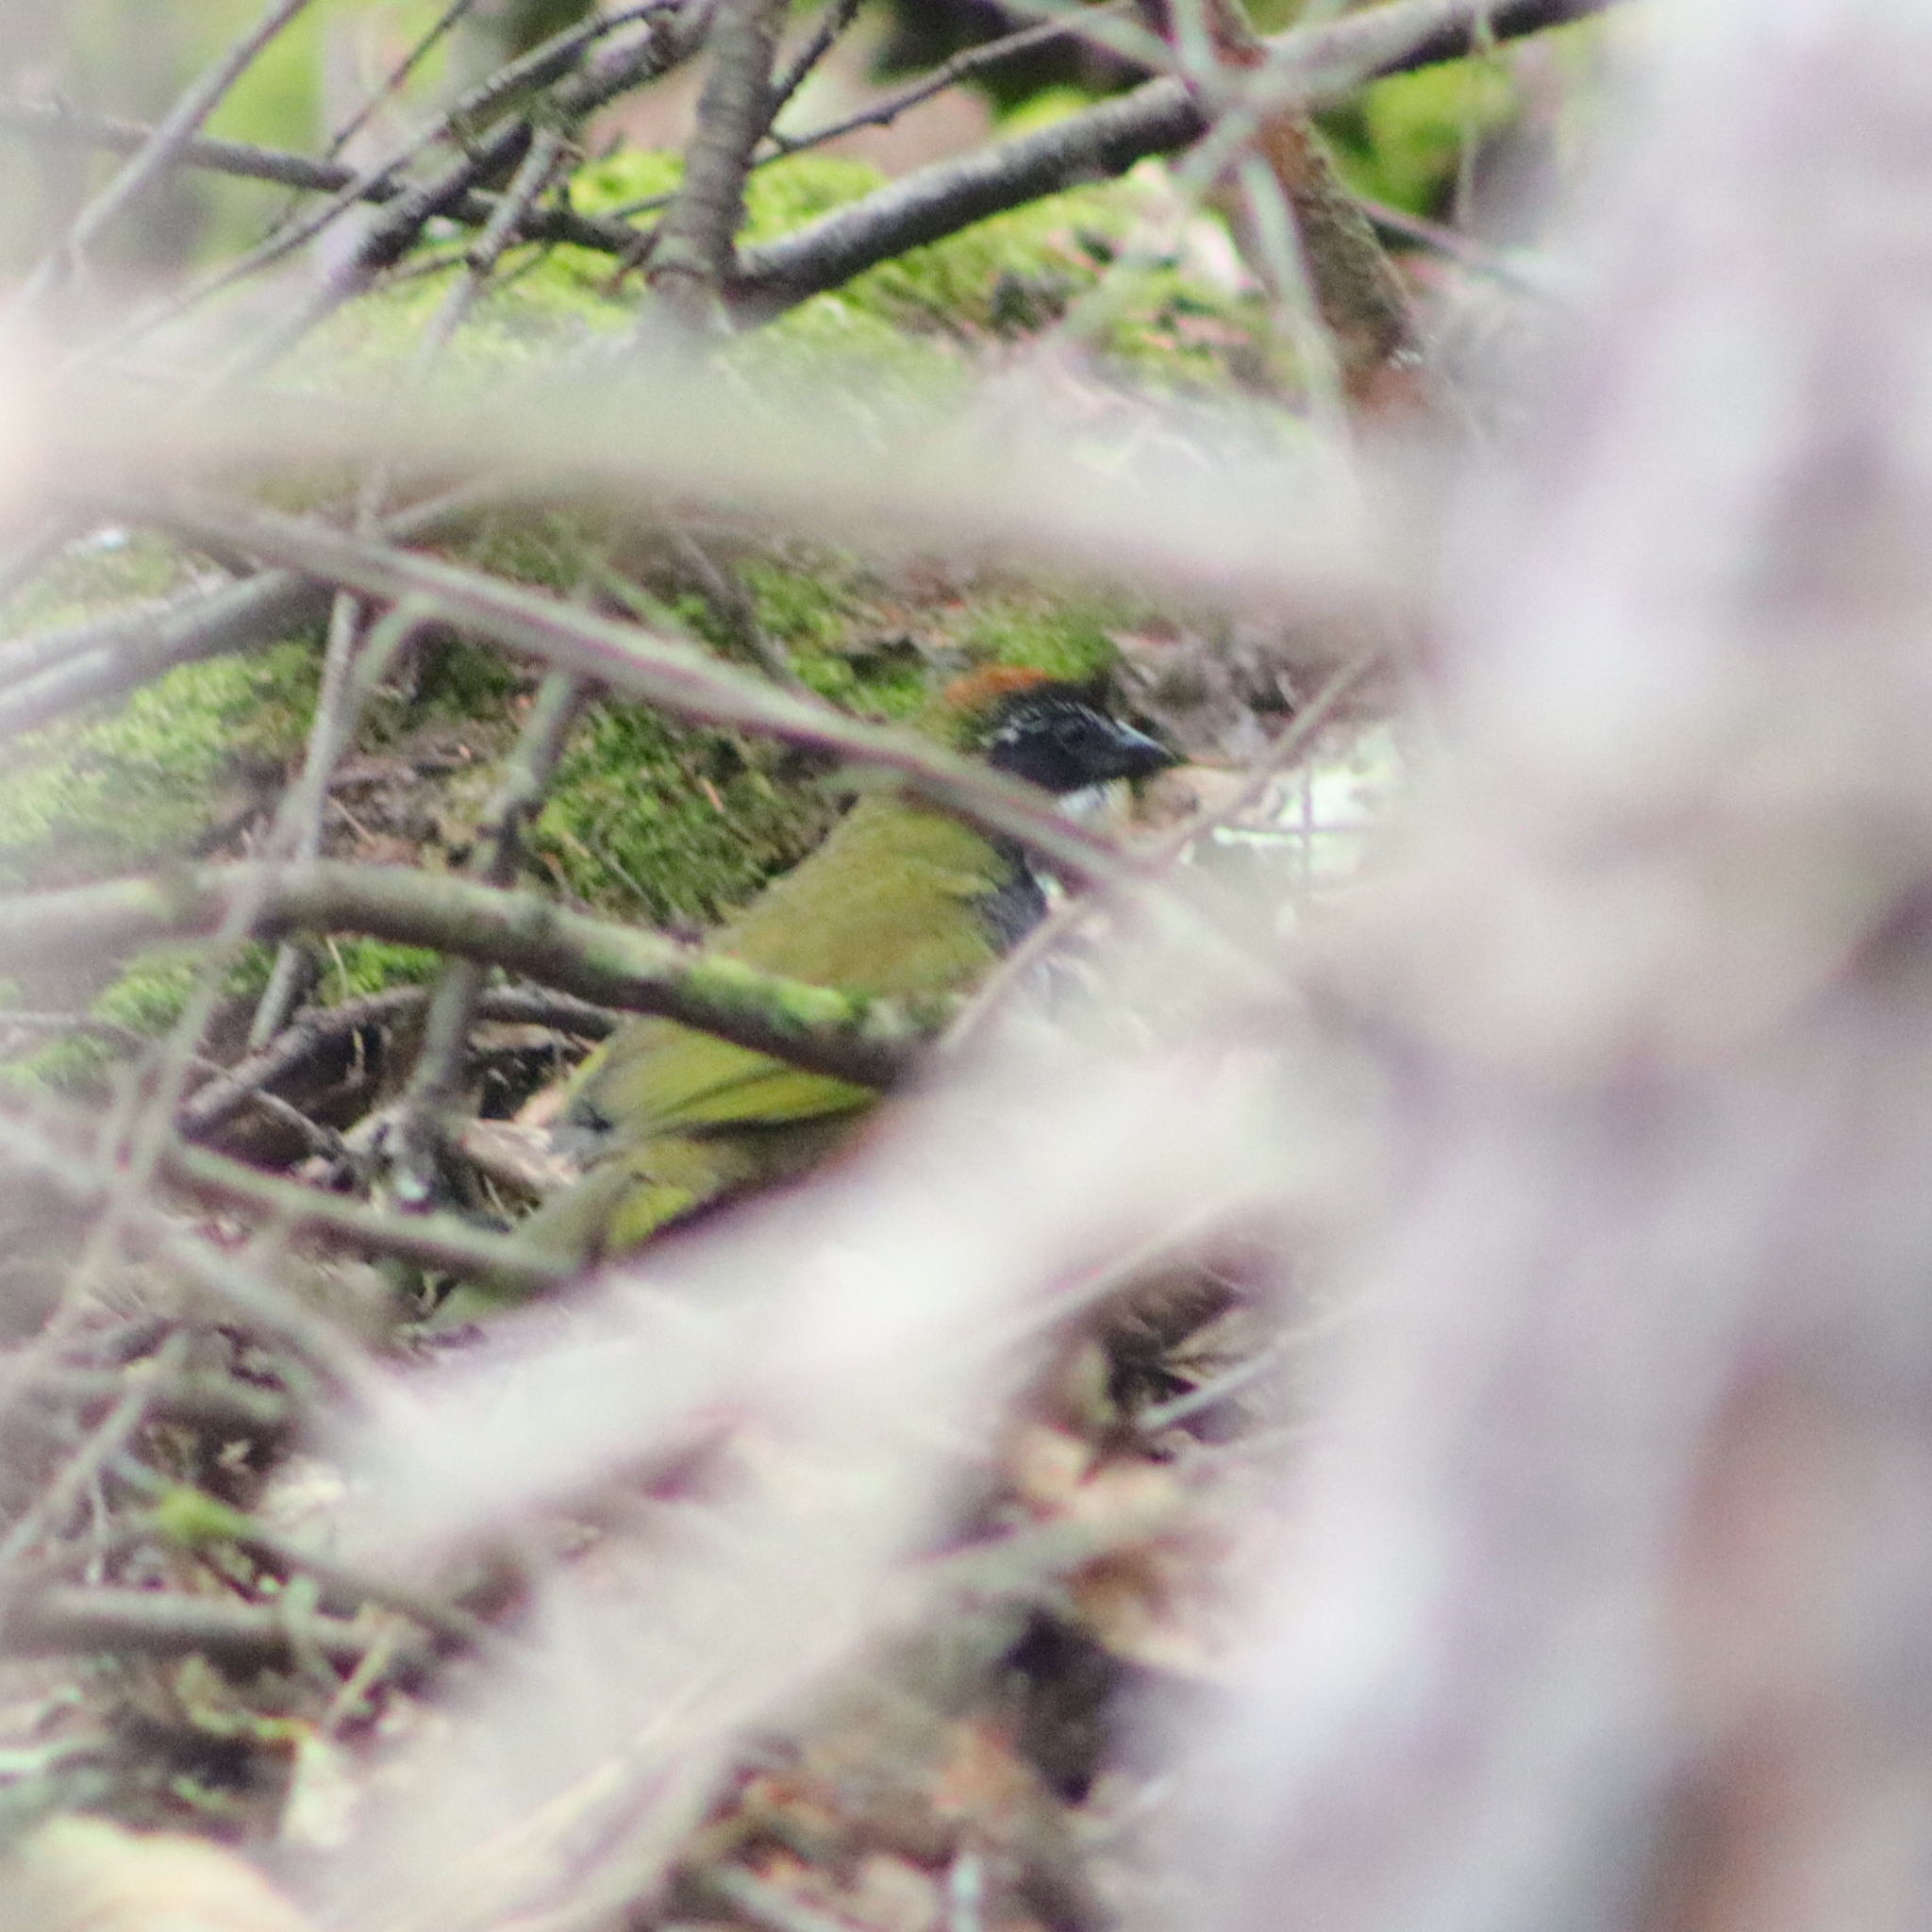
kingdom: Animalia
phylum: Chordata
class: Aves
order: Passeriformes
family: Passerellidae
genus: Pipilo
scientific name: Pipilo ocai
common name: Collared towhee
